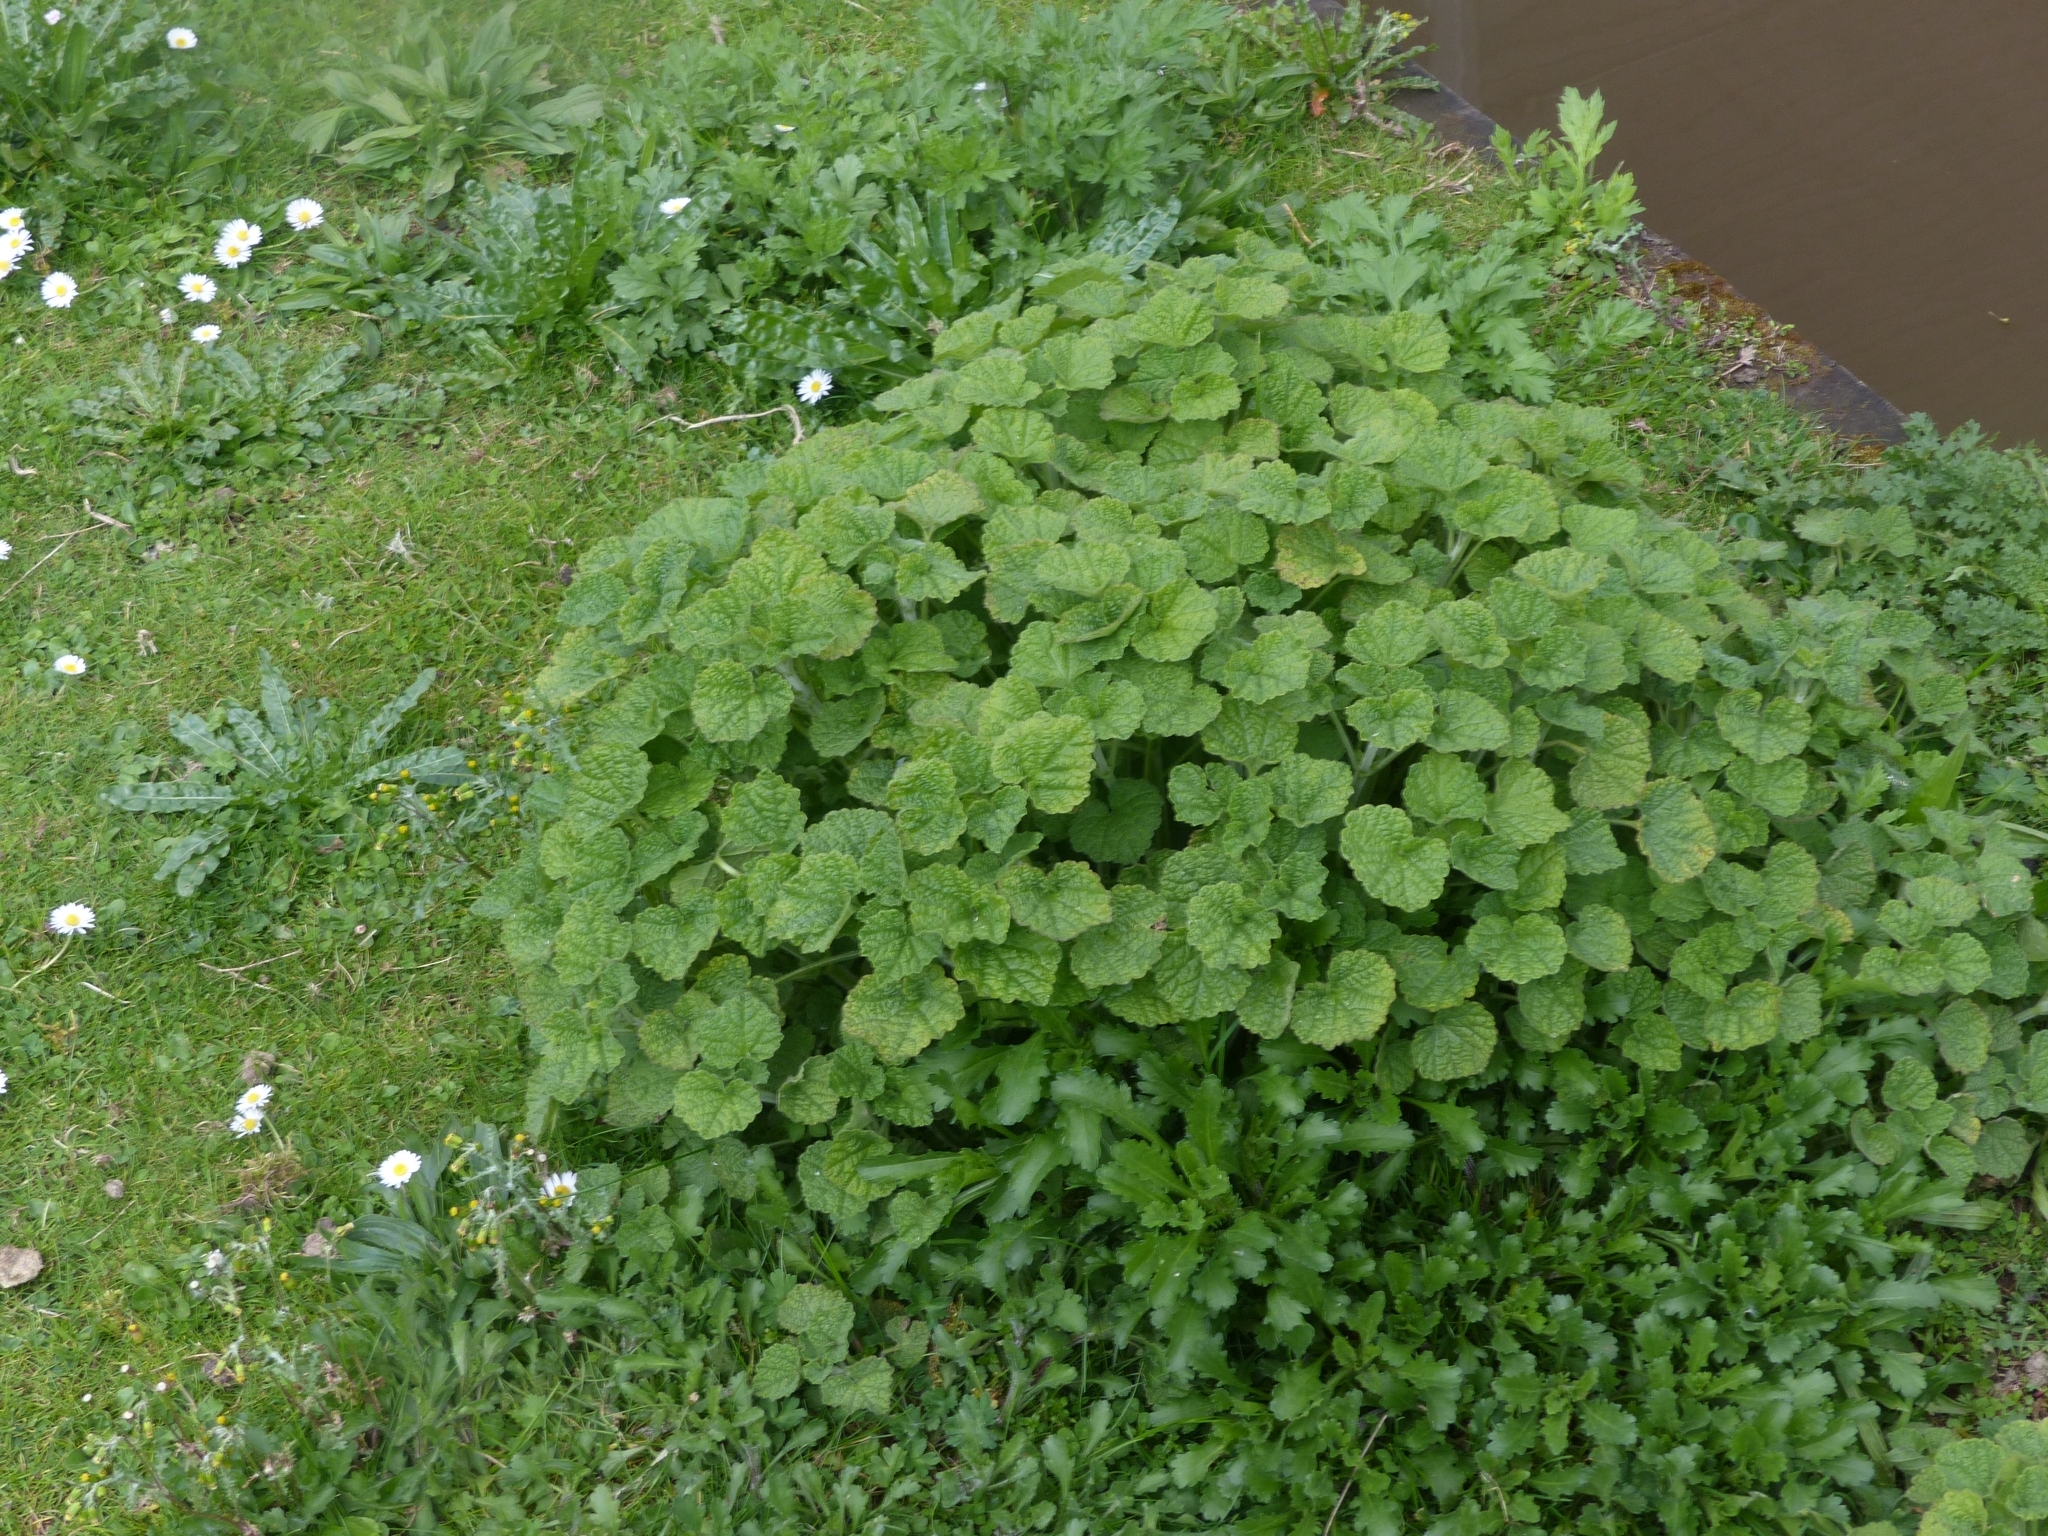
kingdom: Plantae
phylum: Tracheophyta
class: Magnoliopsida
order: Lamiales
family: Lamiaceae
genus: Ballota
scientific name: Ballota nigra
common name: Black horehound
